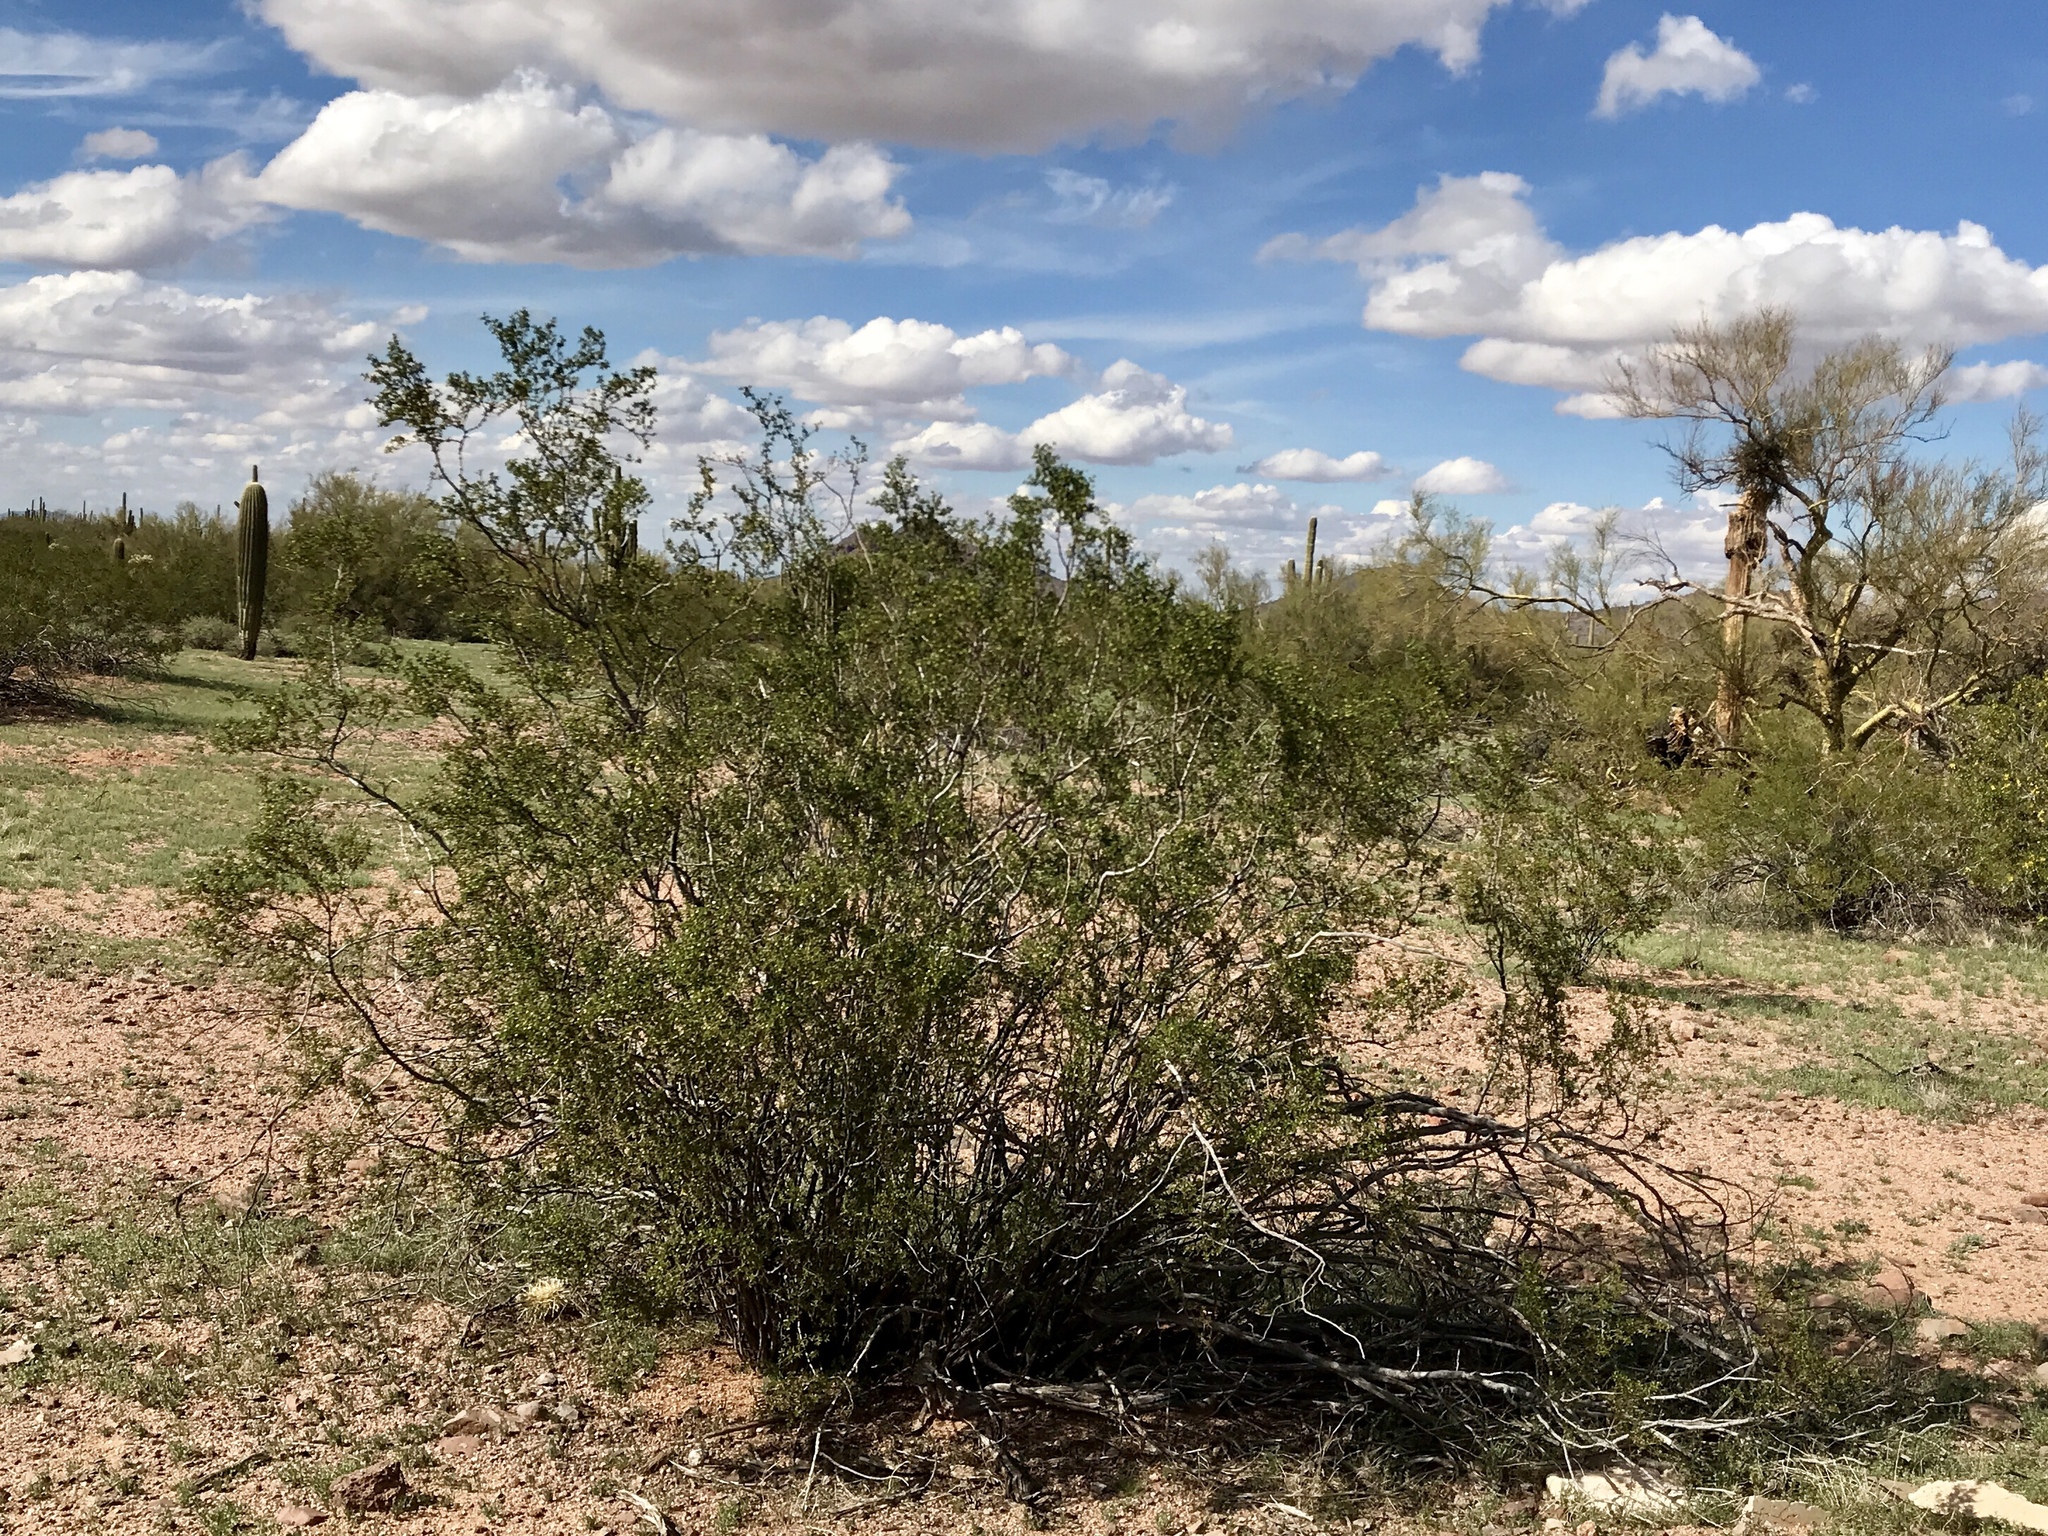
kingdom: Plantae
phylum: Tracheophyta
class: Magnoliopsida
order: Zygophyllales
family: Zygophyllaceae
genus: Larrea
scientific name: Larrea tridentata
